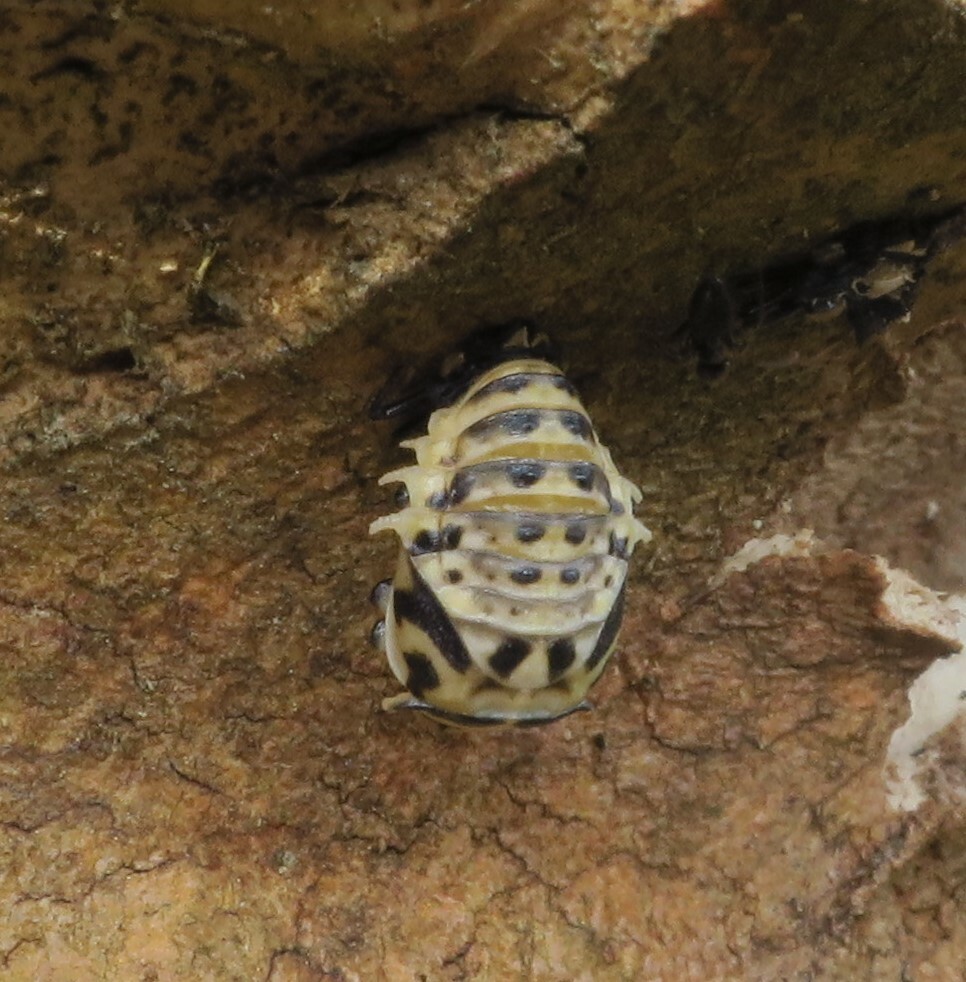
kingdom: Animalia
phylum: Arthropoda
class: Insecta
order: Coleoptera
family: Coccinellidae
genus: Cleobora
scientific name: Cleobora
